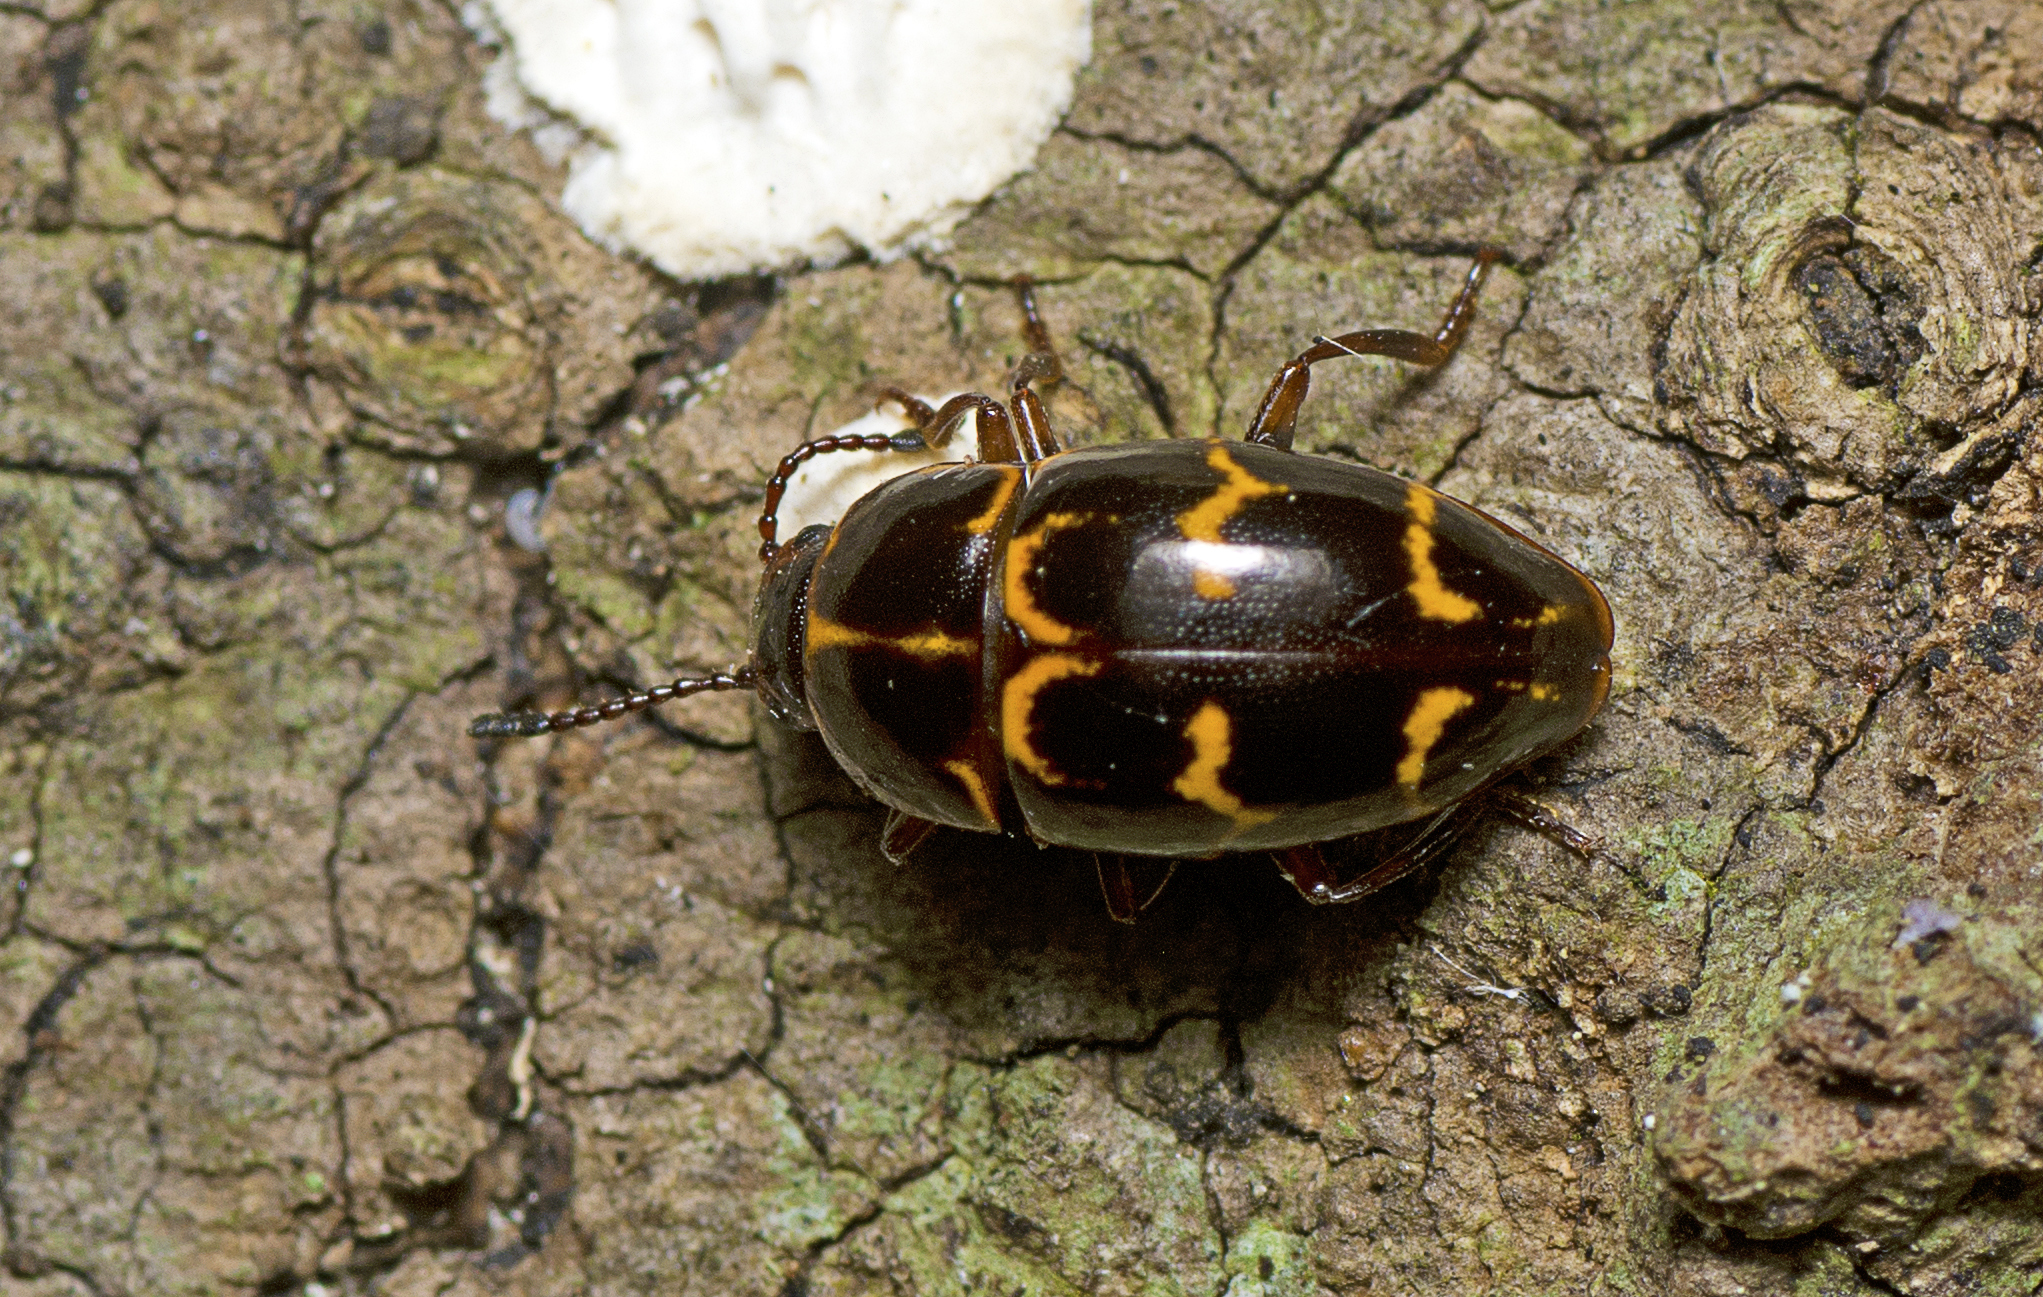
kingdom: Animalia
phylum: Arthropoda
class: Insecta
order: Coleoptera
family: Erotylidae
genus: Episcaphula
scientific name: Episcaphula tamburinea
